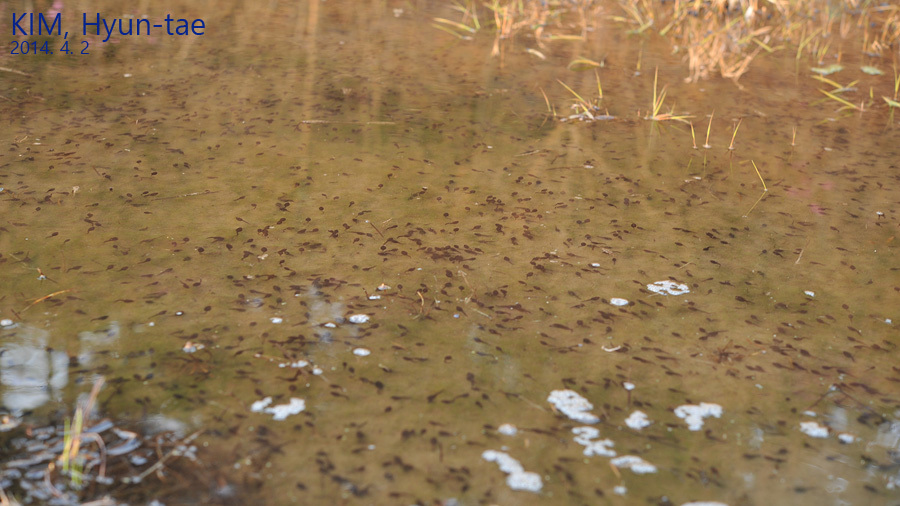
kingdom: Animalia
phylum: Chordata
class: Amphibia
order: Anura
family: Bufonidae
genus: Bufo
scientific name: Bufo gargarizans
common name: Asiatic toad
